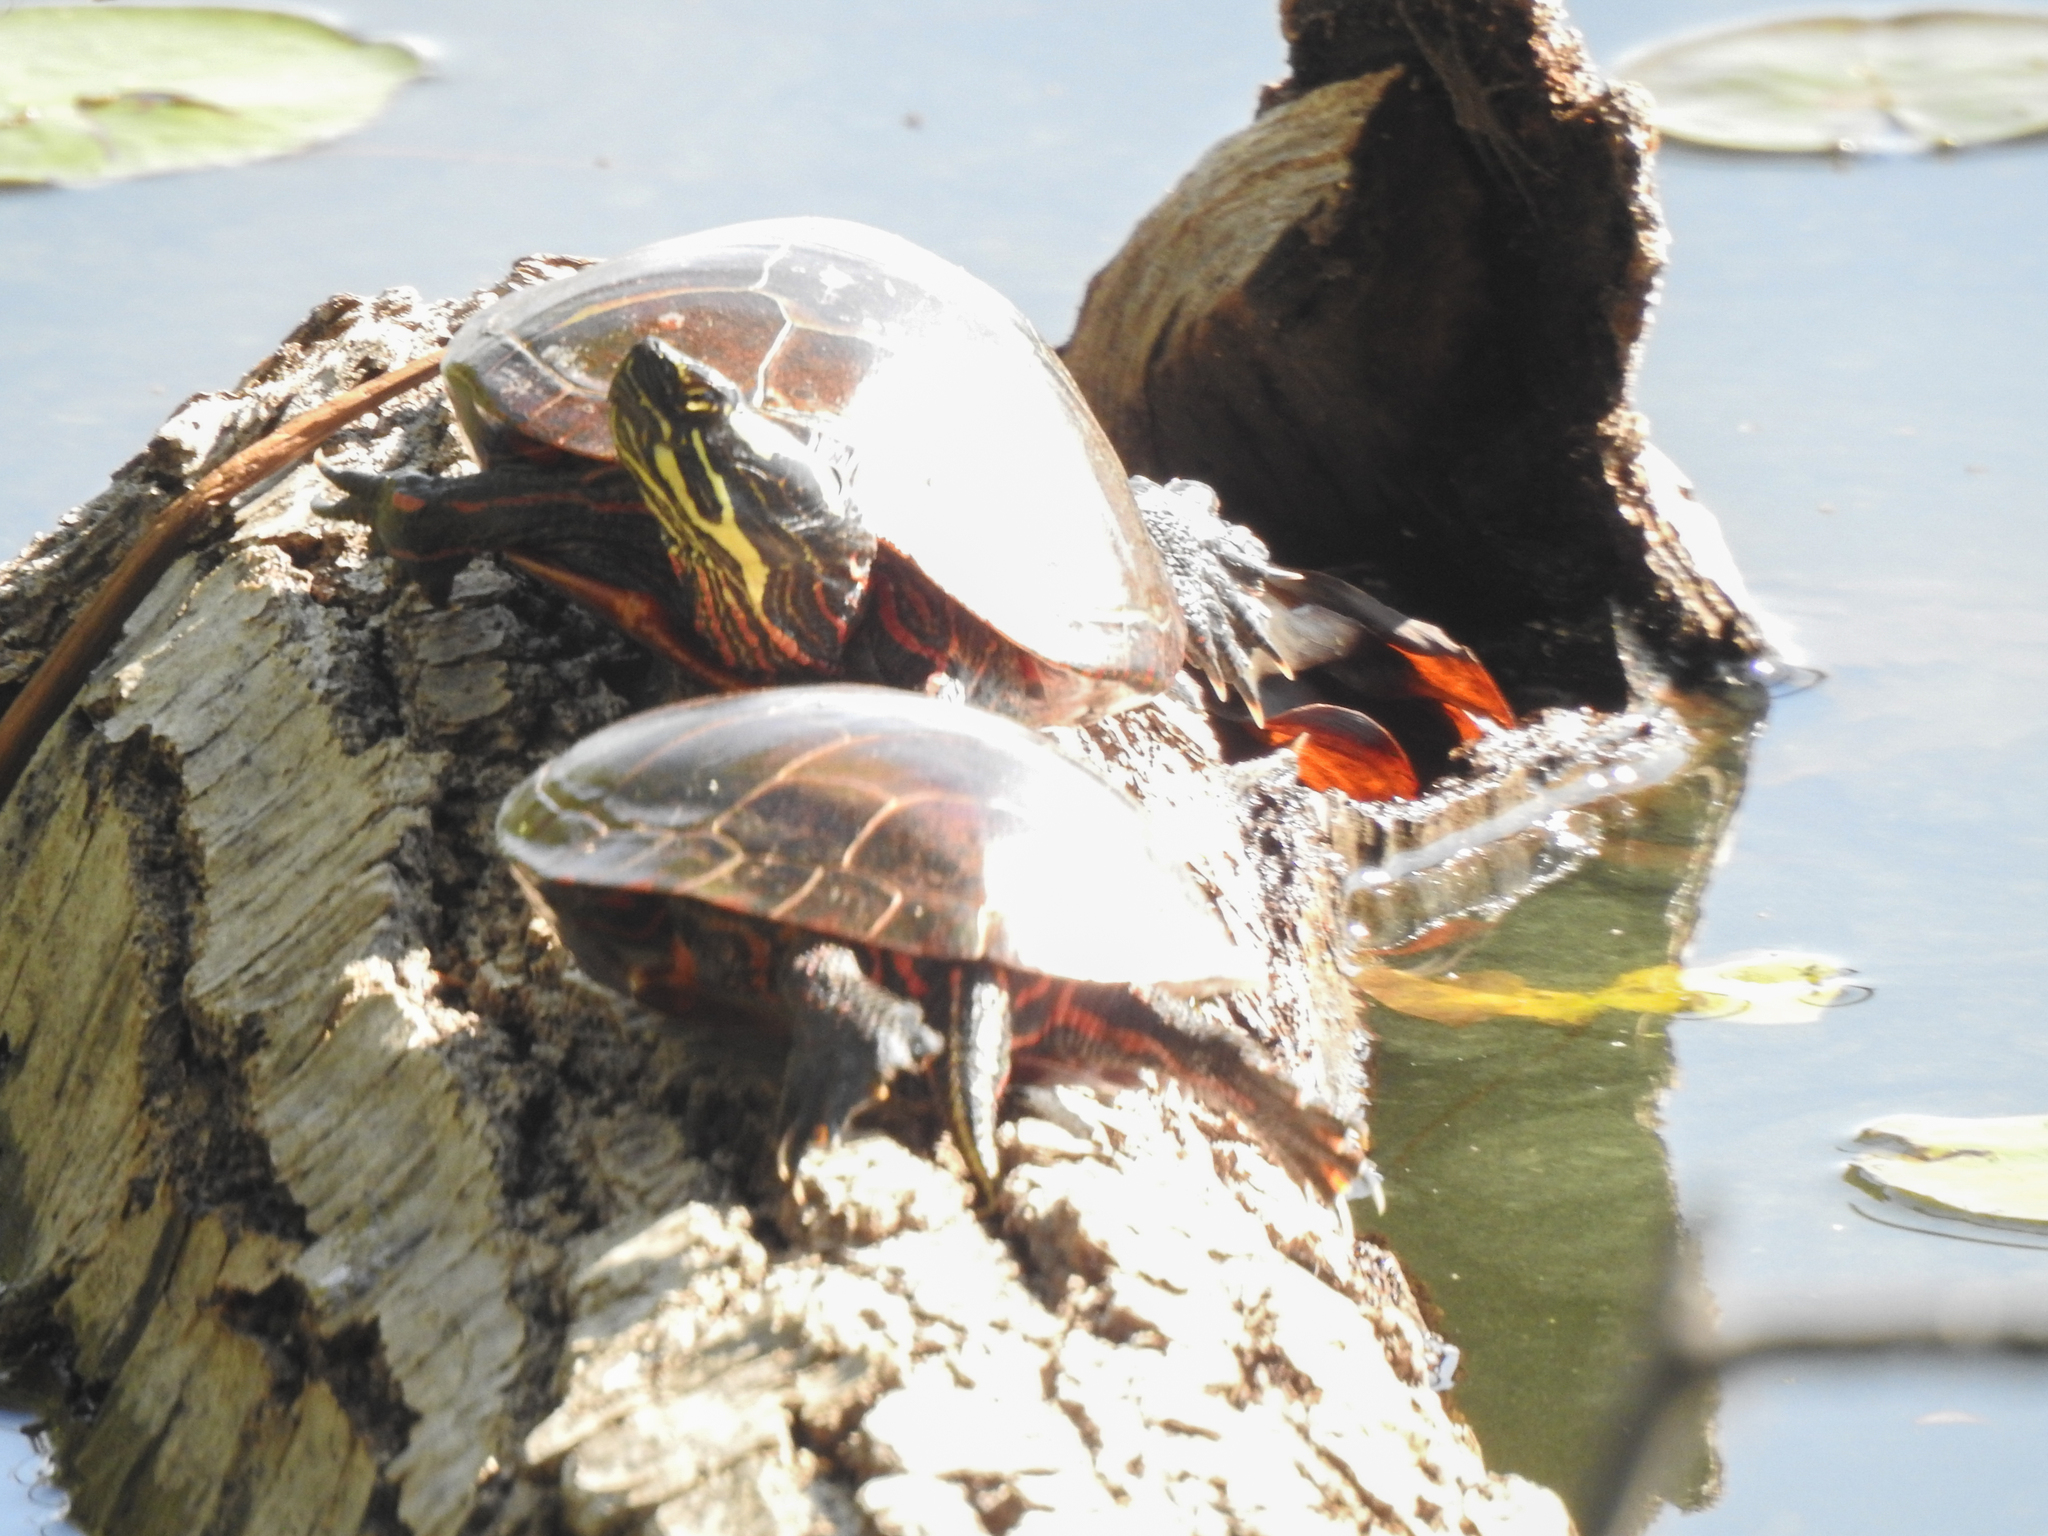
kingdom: Animalia
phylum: Chordata
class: Testudines
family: Emydidae
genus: Chrysemys
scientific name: Chrysemys picta
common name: Painted turtle
